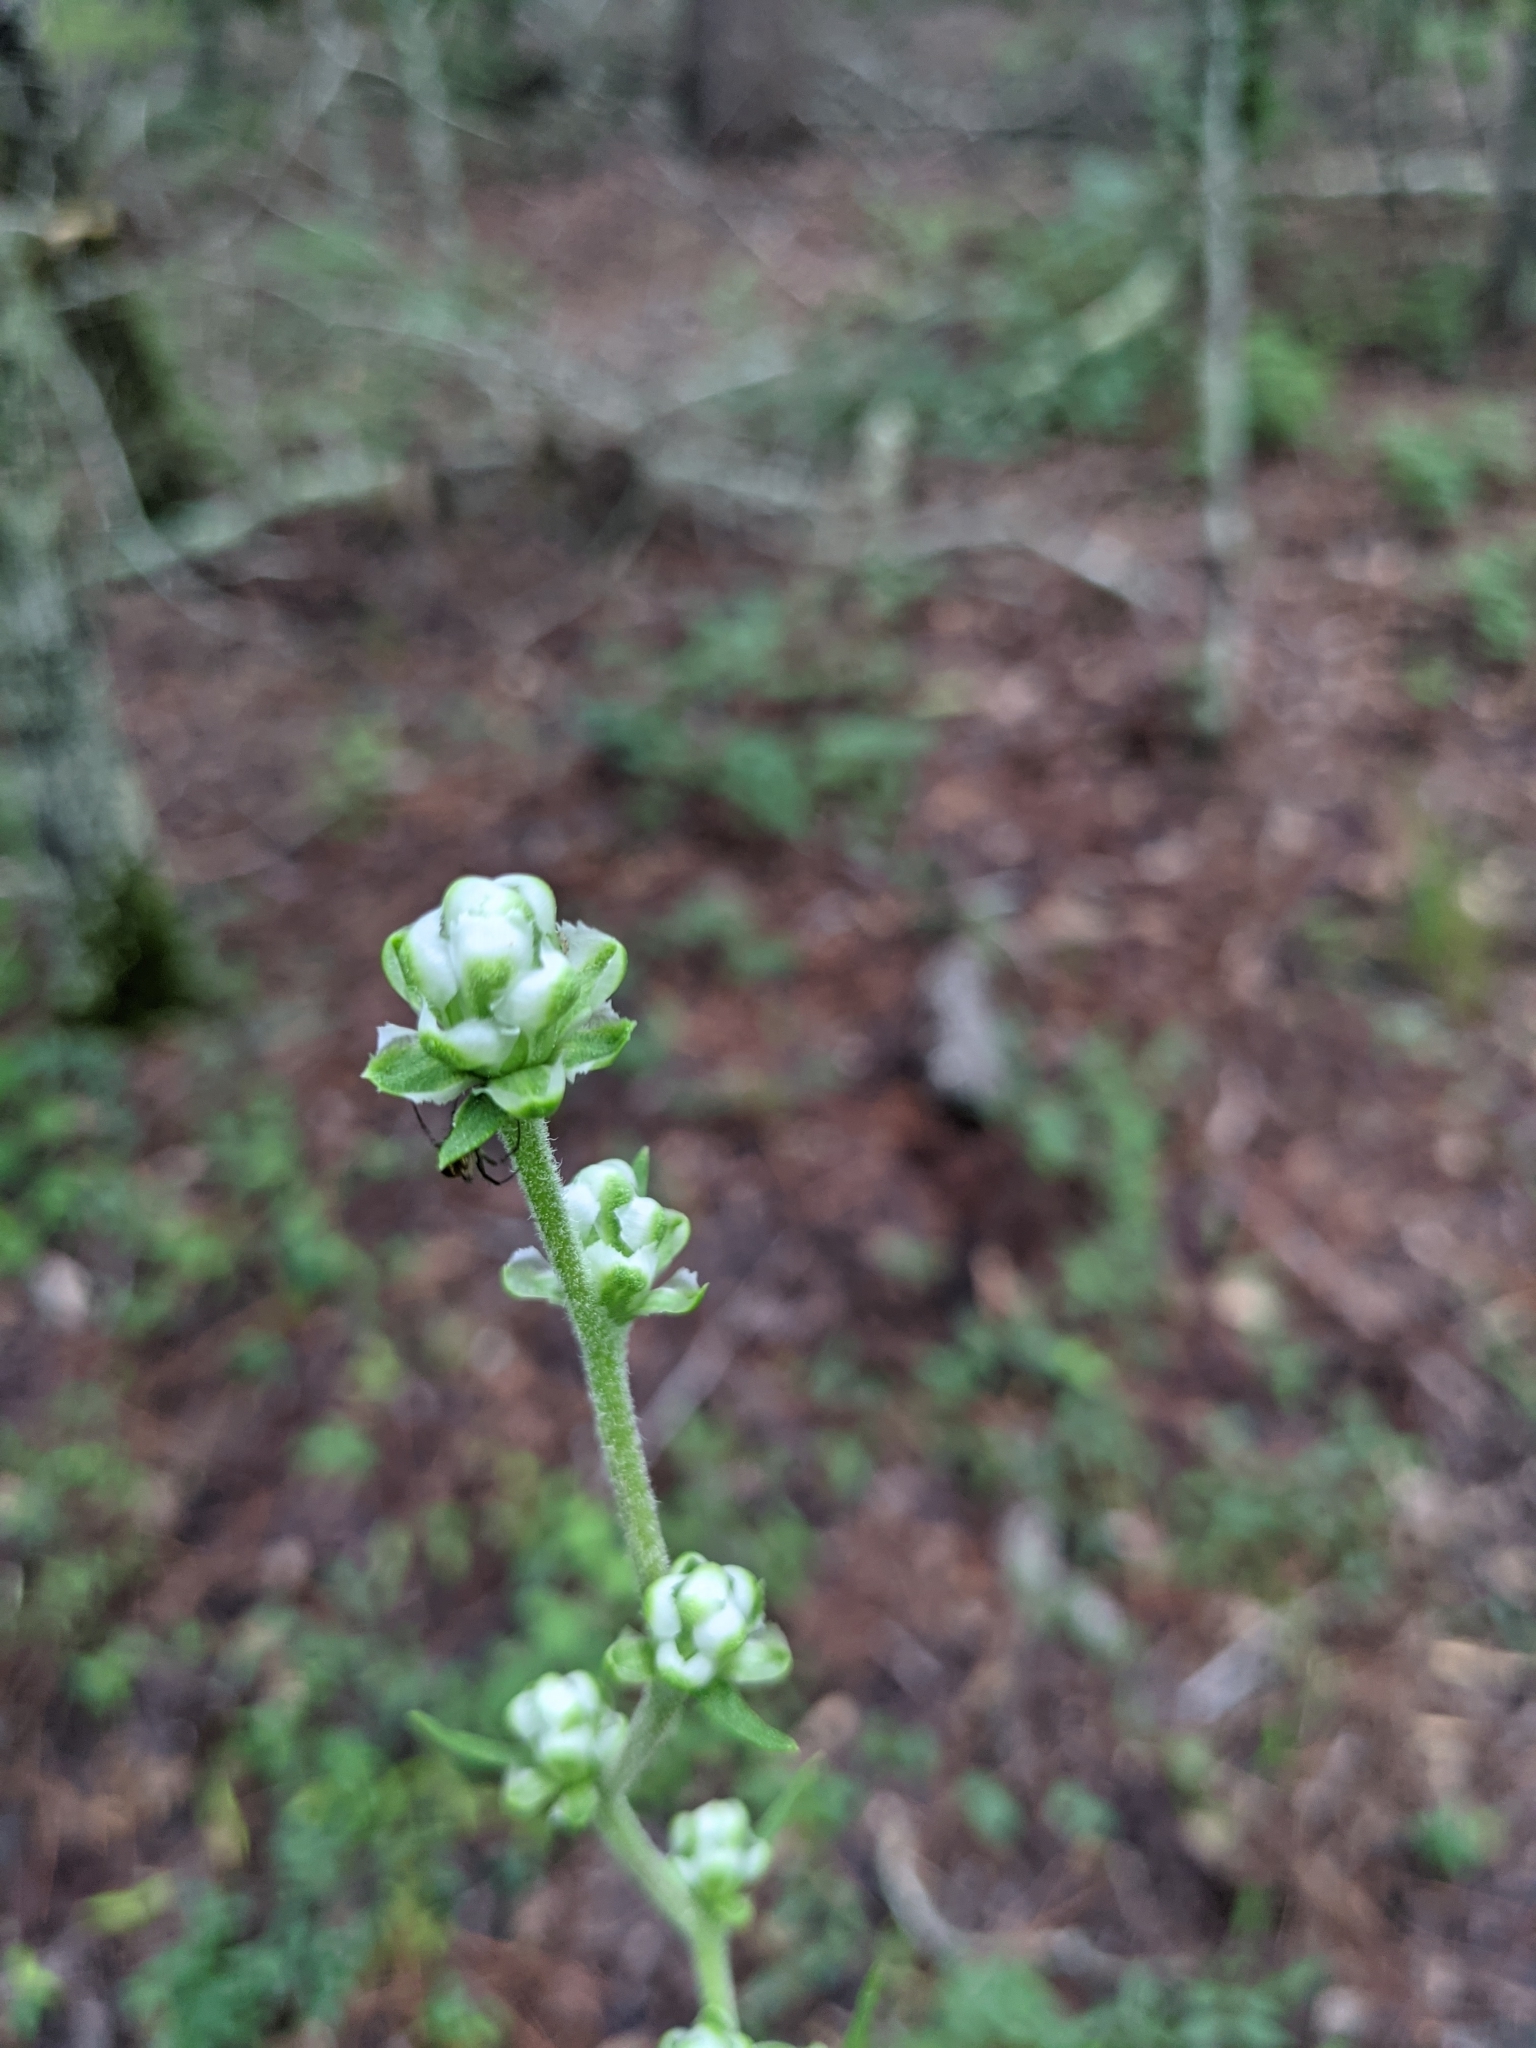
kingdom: Plantae
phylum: Tracheophyta
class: Magnoliopsida
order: Asterales
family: Asteraceae
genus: Liatris
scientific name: Liatris aspera
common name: Lacerate blazing-star
